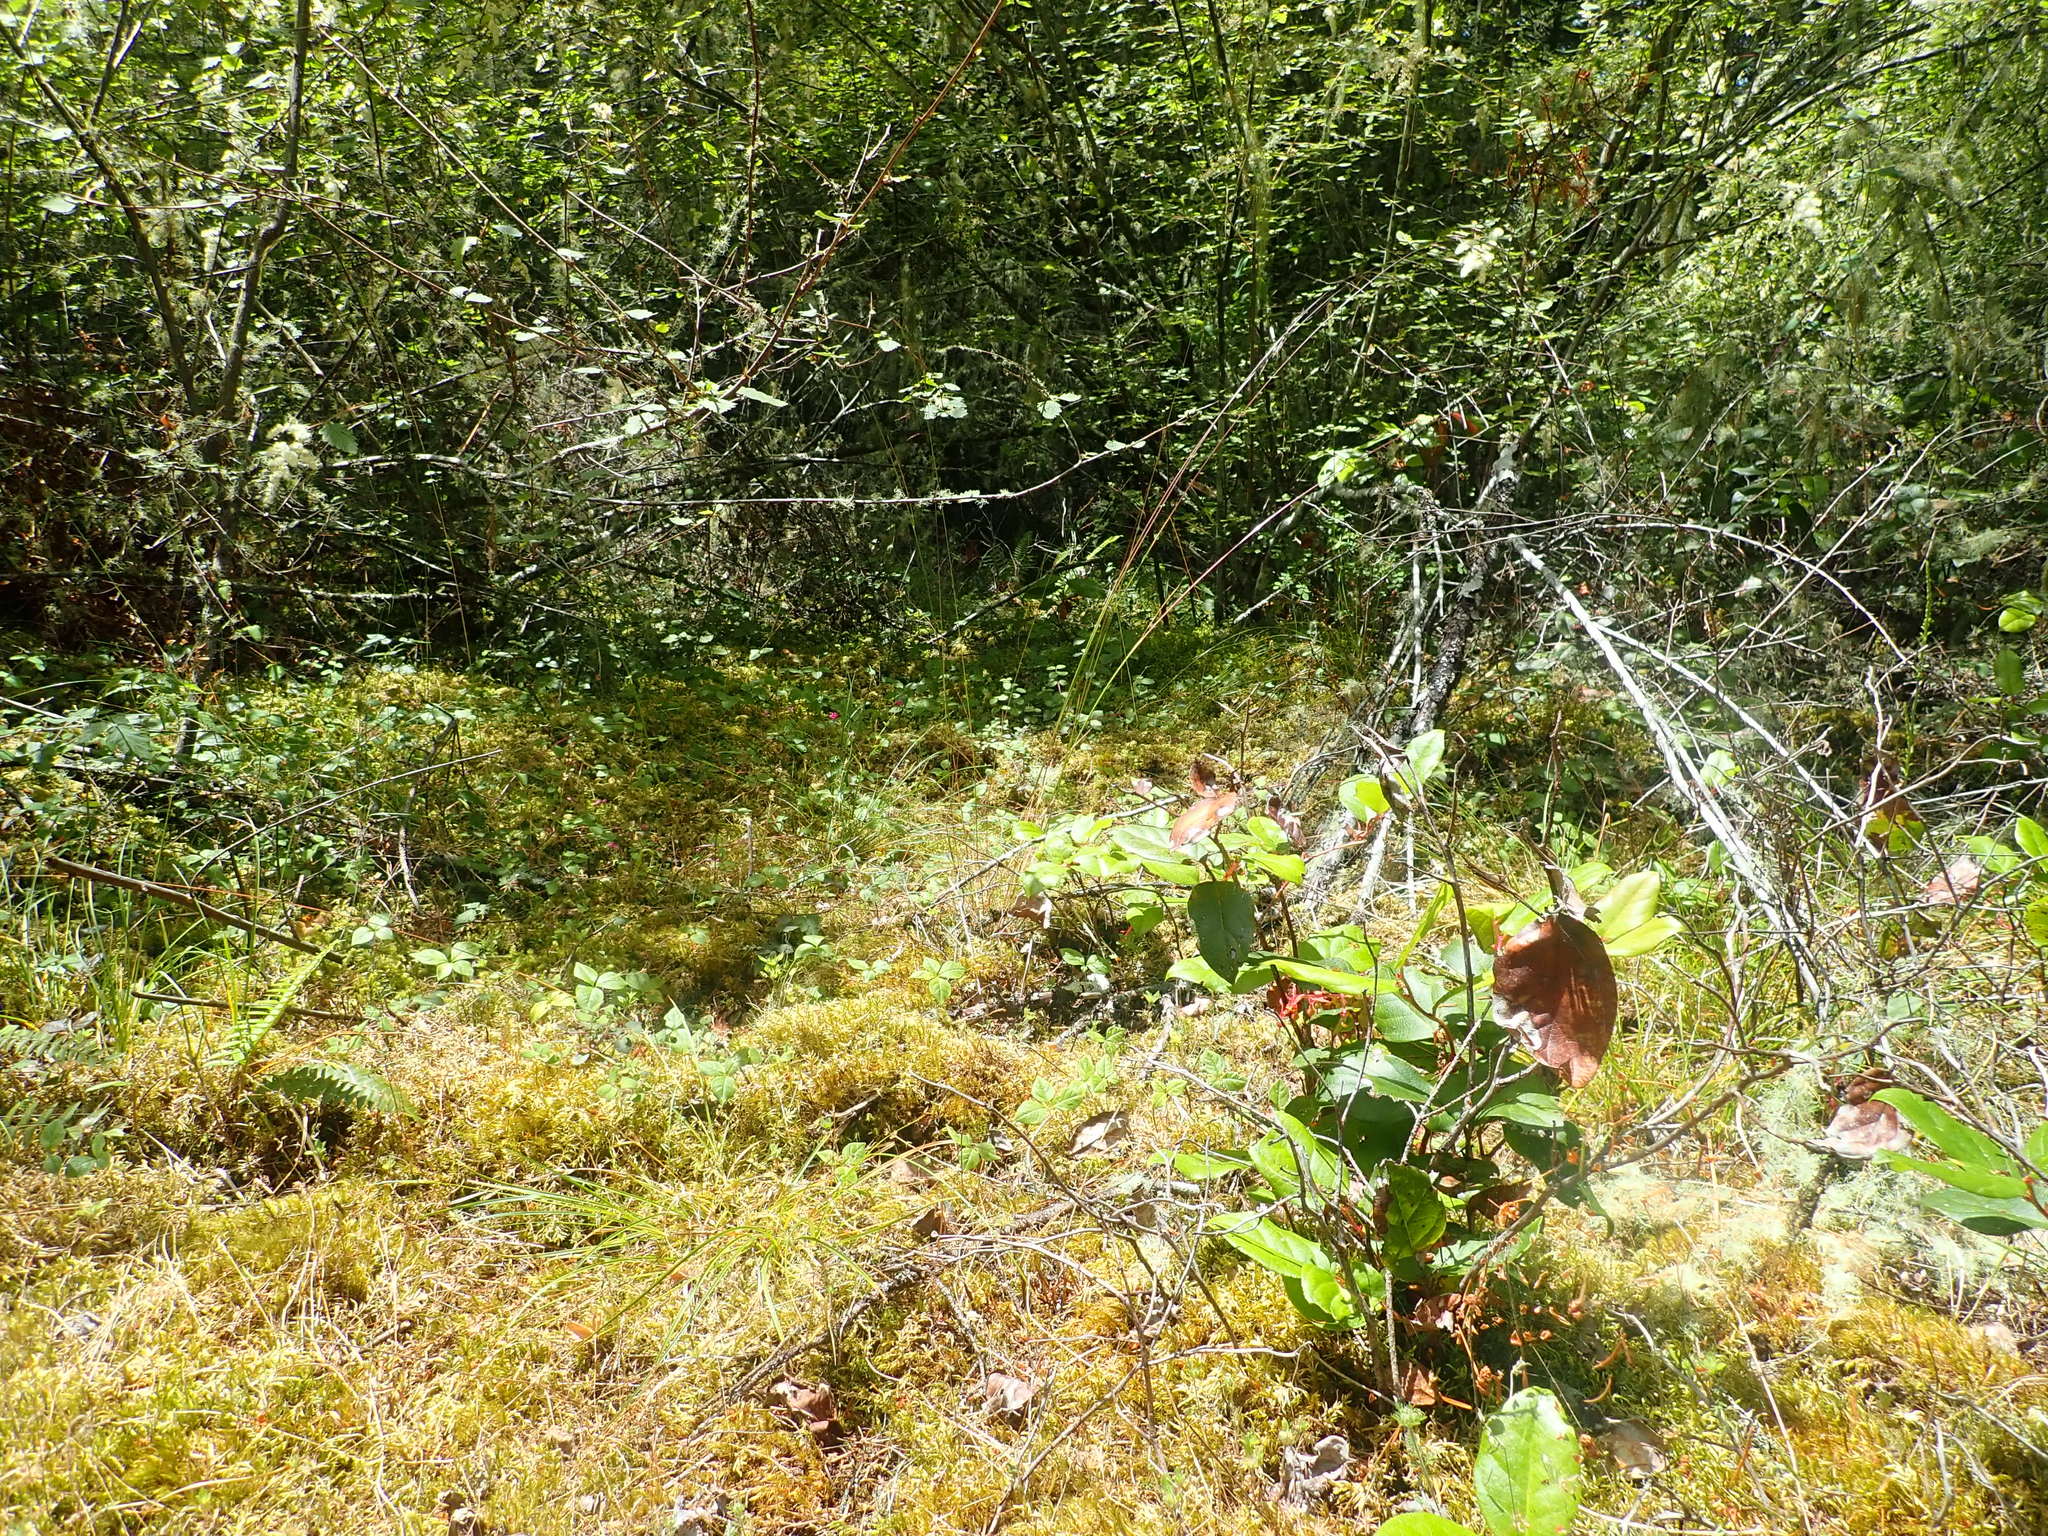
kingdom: Plantae
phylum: Tracheophyta
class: Magnoliopsida
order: Asterales
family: Asteraceae
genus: Madia
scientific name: Madia exigua
